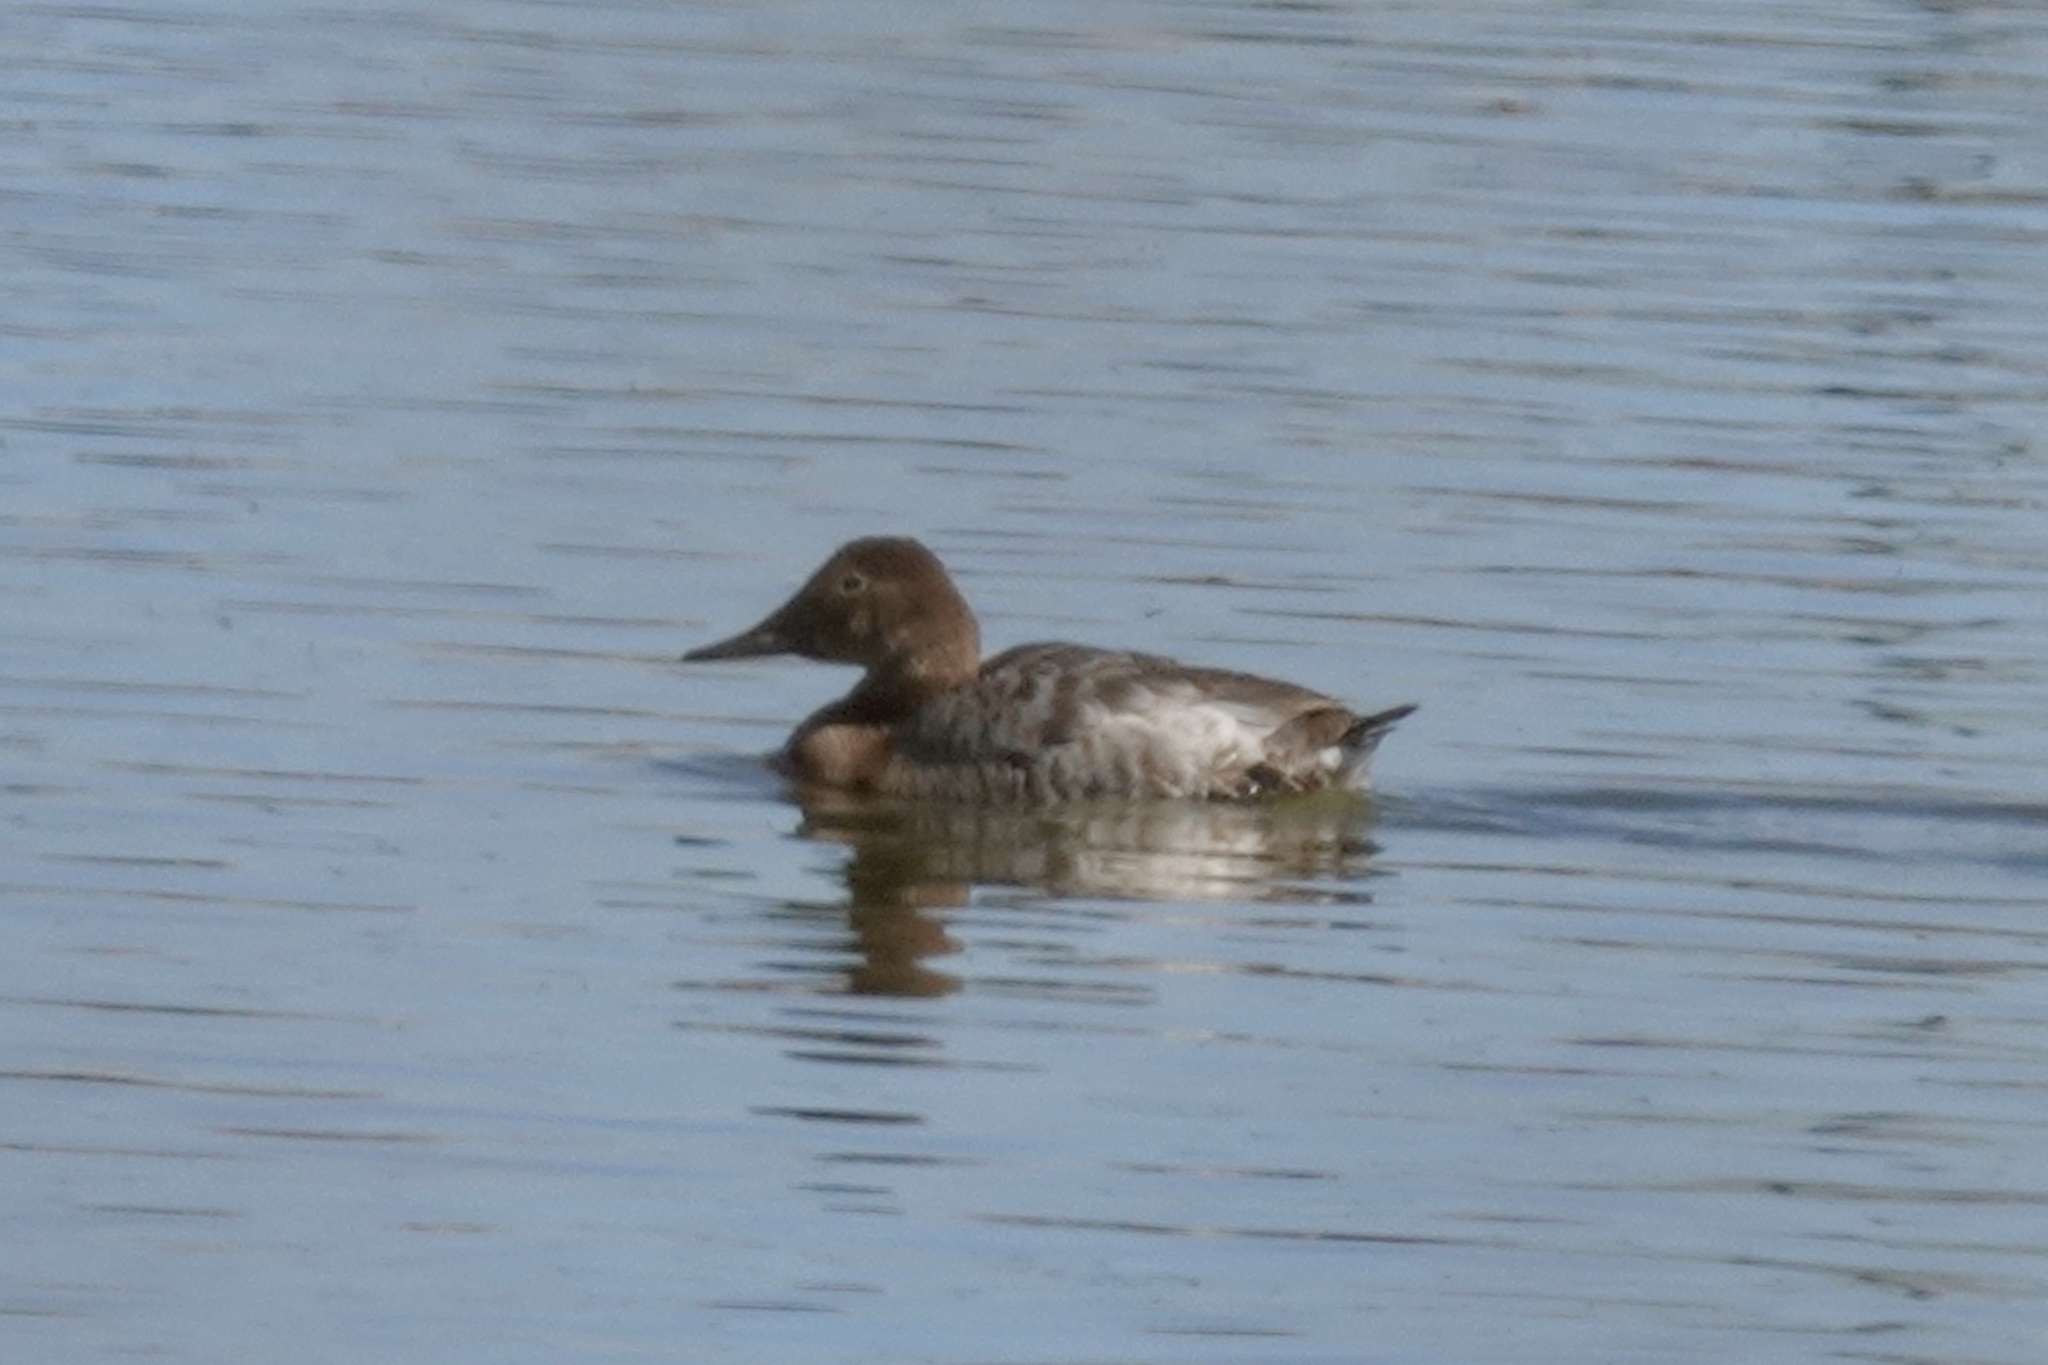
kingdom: Animalia
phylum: Chordata
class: Aves
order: Anseriformes
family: Anatidae
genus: Aythya
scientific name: Aythya valisineria
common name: Canvasback
